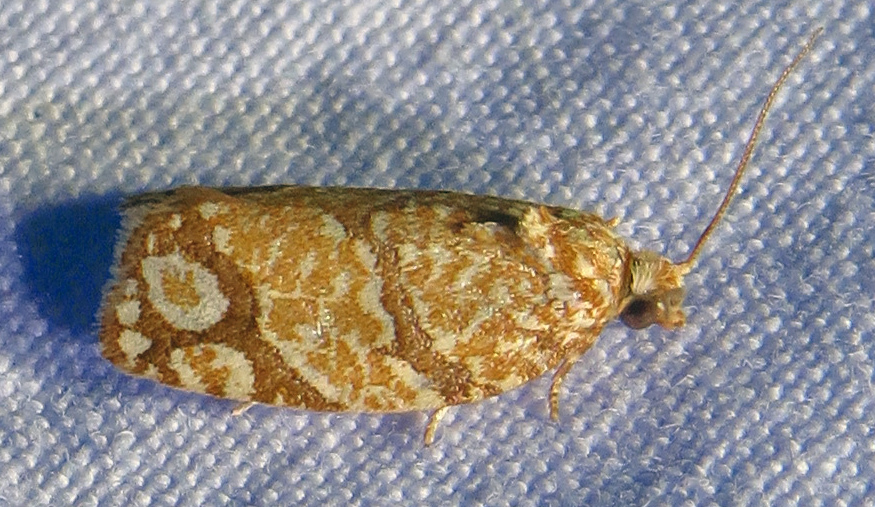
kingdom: Animalia
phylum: Arthropoda
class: Insecta
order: Lepidoptera
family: Tortricidae
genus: Argyrotaenia
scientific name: Argyrotaenia quercifoliana
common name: Yellow-winged oak leafroller moth
